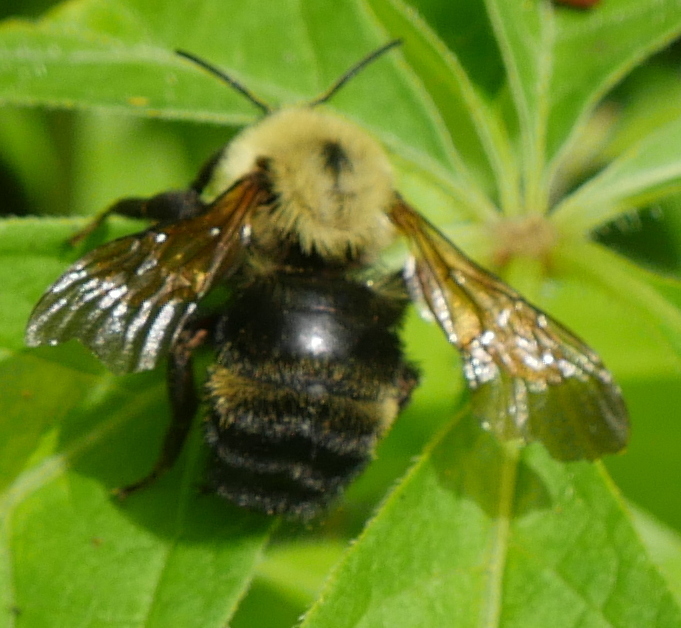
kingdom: Animalia
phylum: Arthropoda
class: Insecta
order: Hymenoptera
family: Apidae
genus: Bombus
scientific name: Bombus citrinus
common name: Lemon cuckoo bumble bee
